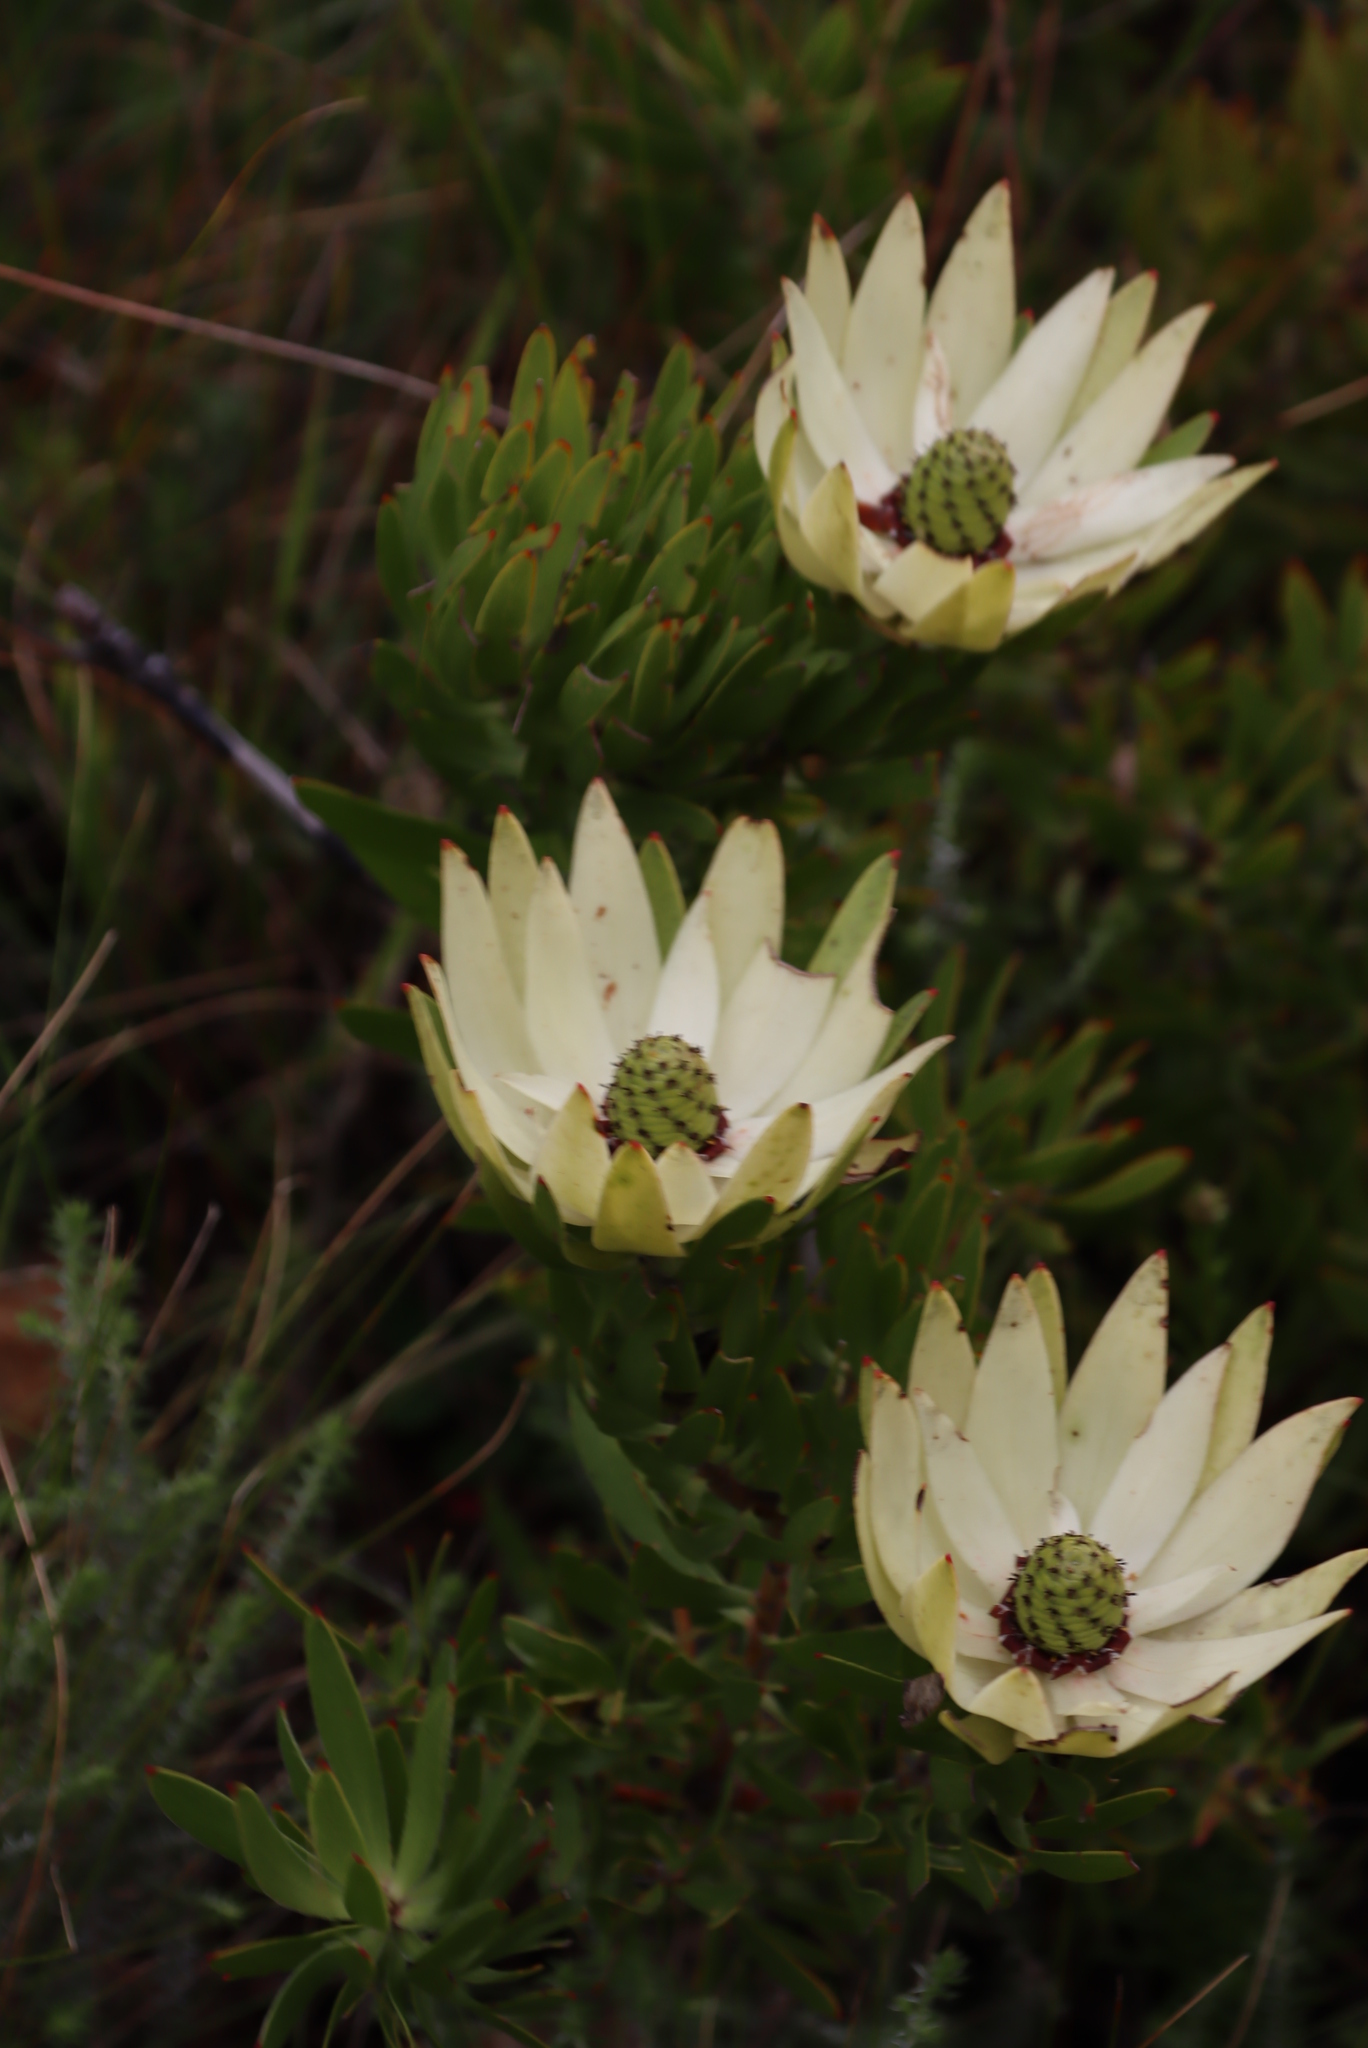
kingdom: Plantae
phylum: Tracheophyta
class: Magnoliopsida
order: Proteales
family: Proteaceae
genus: Leucadendron
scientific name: Leucadendron spissifolium
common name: Spear-leaf conebush
